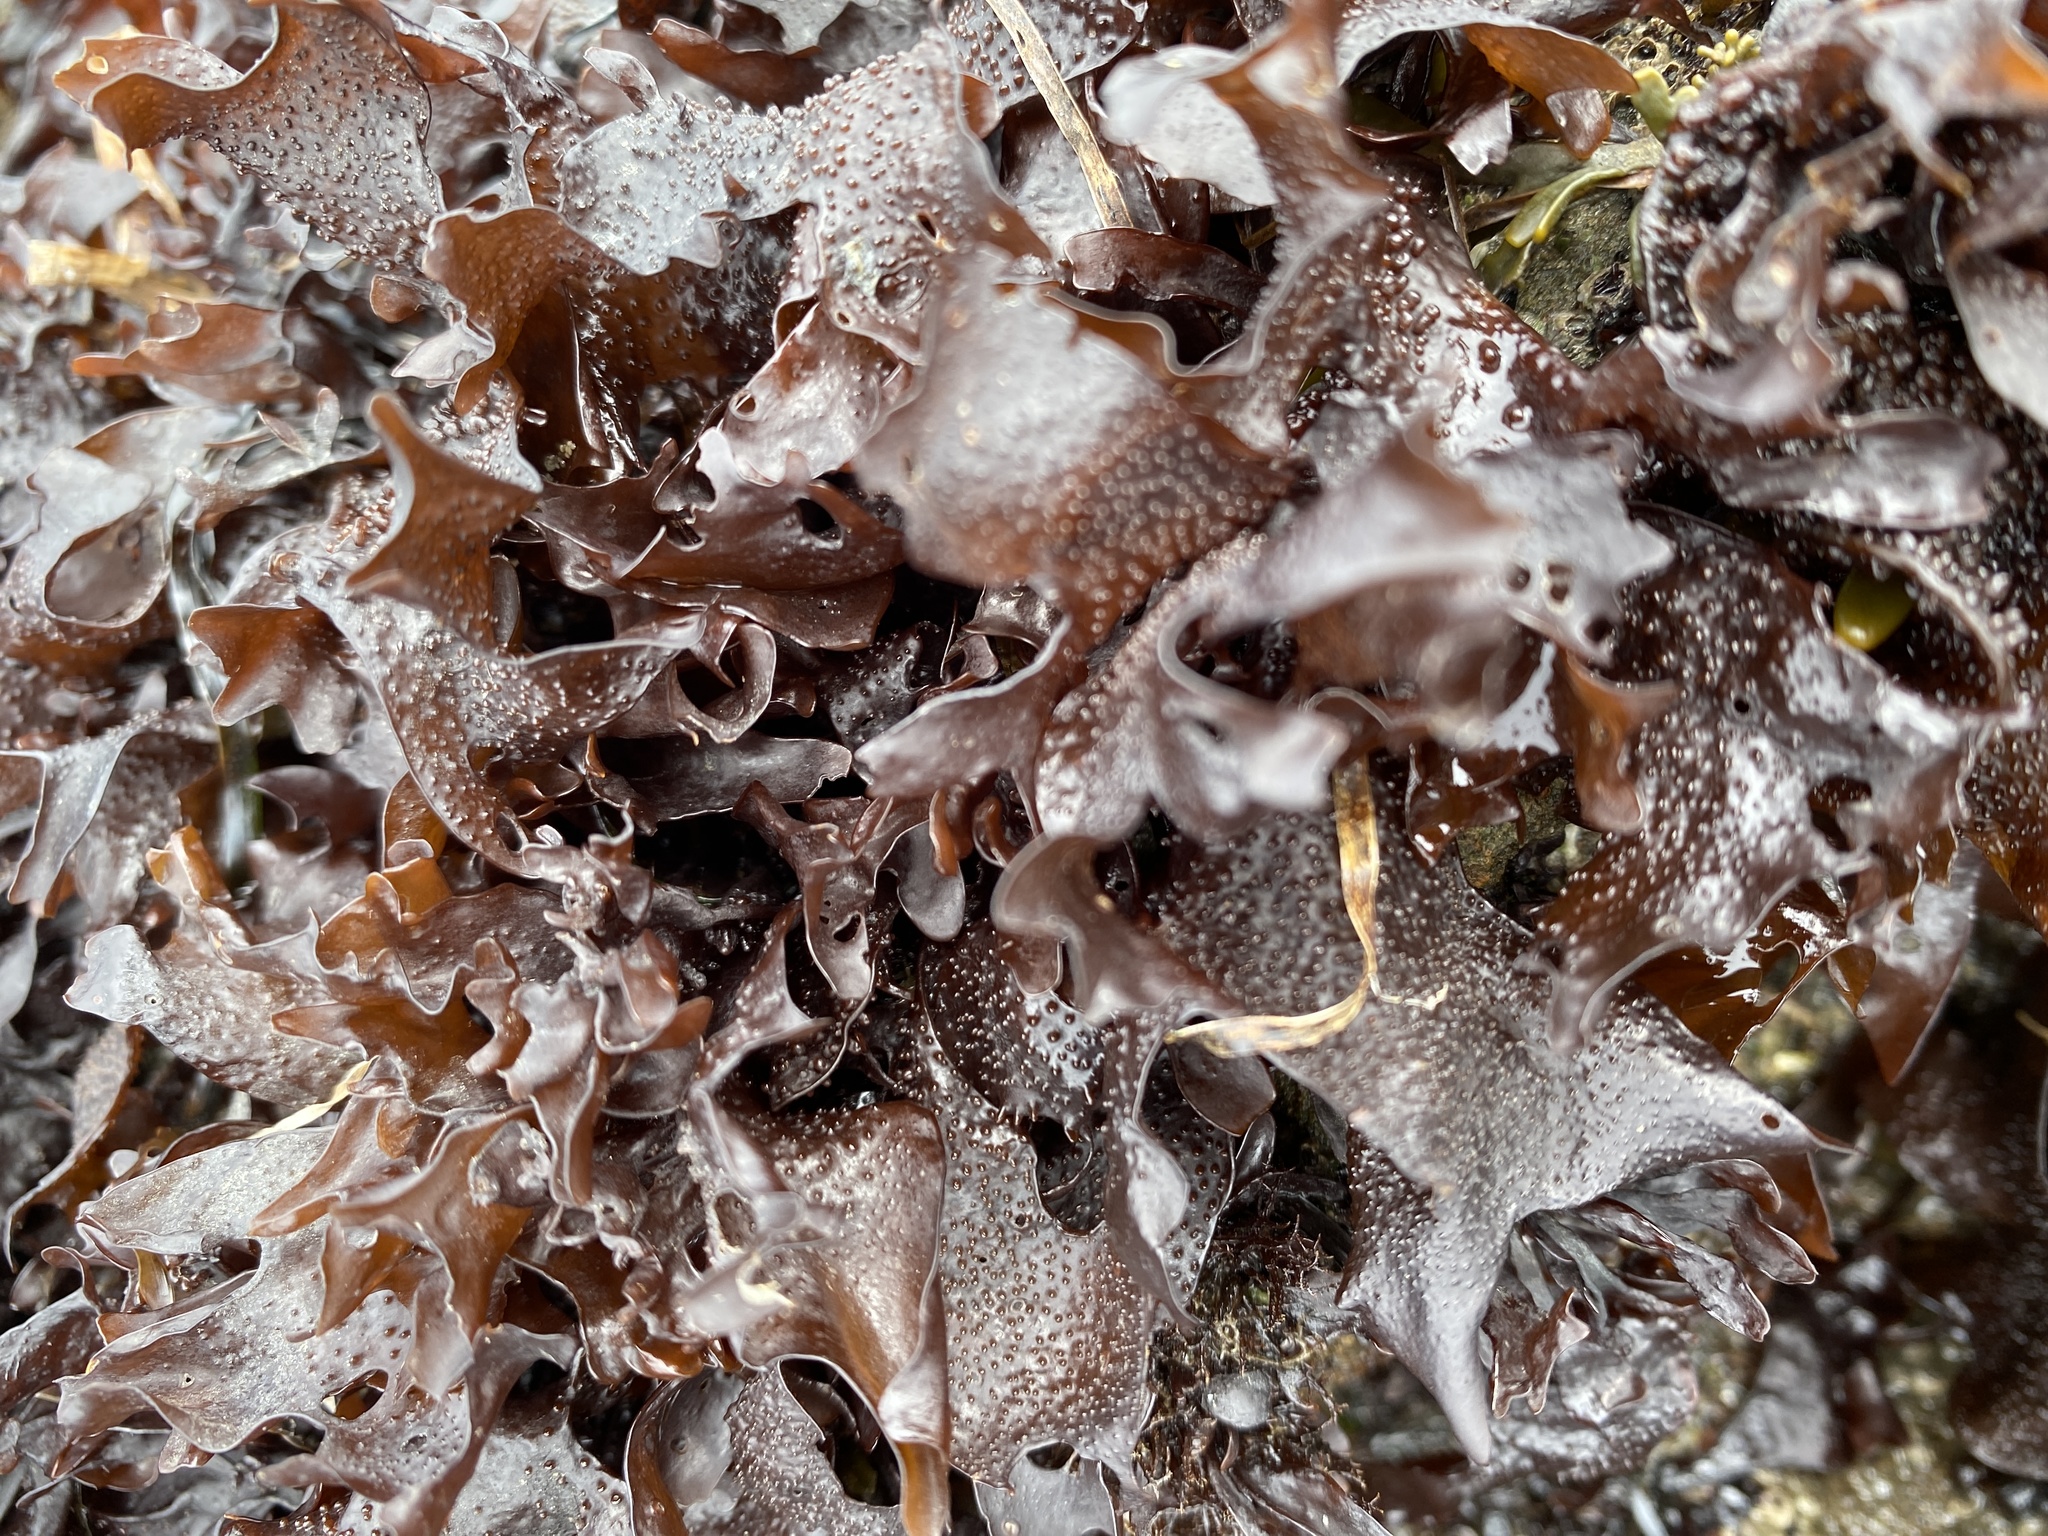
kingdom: Plantae
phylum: Rhodophyta
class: Florideophyceae
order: Gigartinales
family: Phyllophoraceae
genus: Mastocarpus
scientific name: Mastocarpus papillatus
